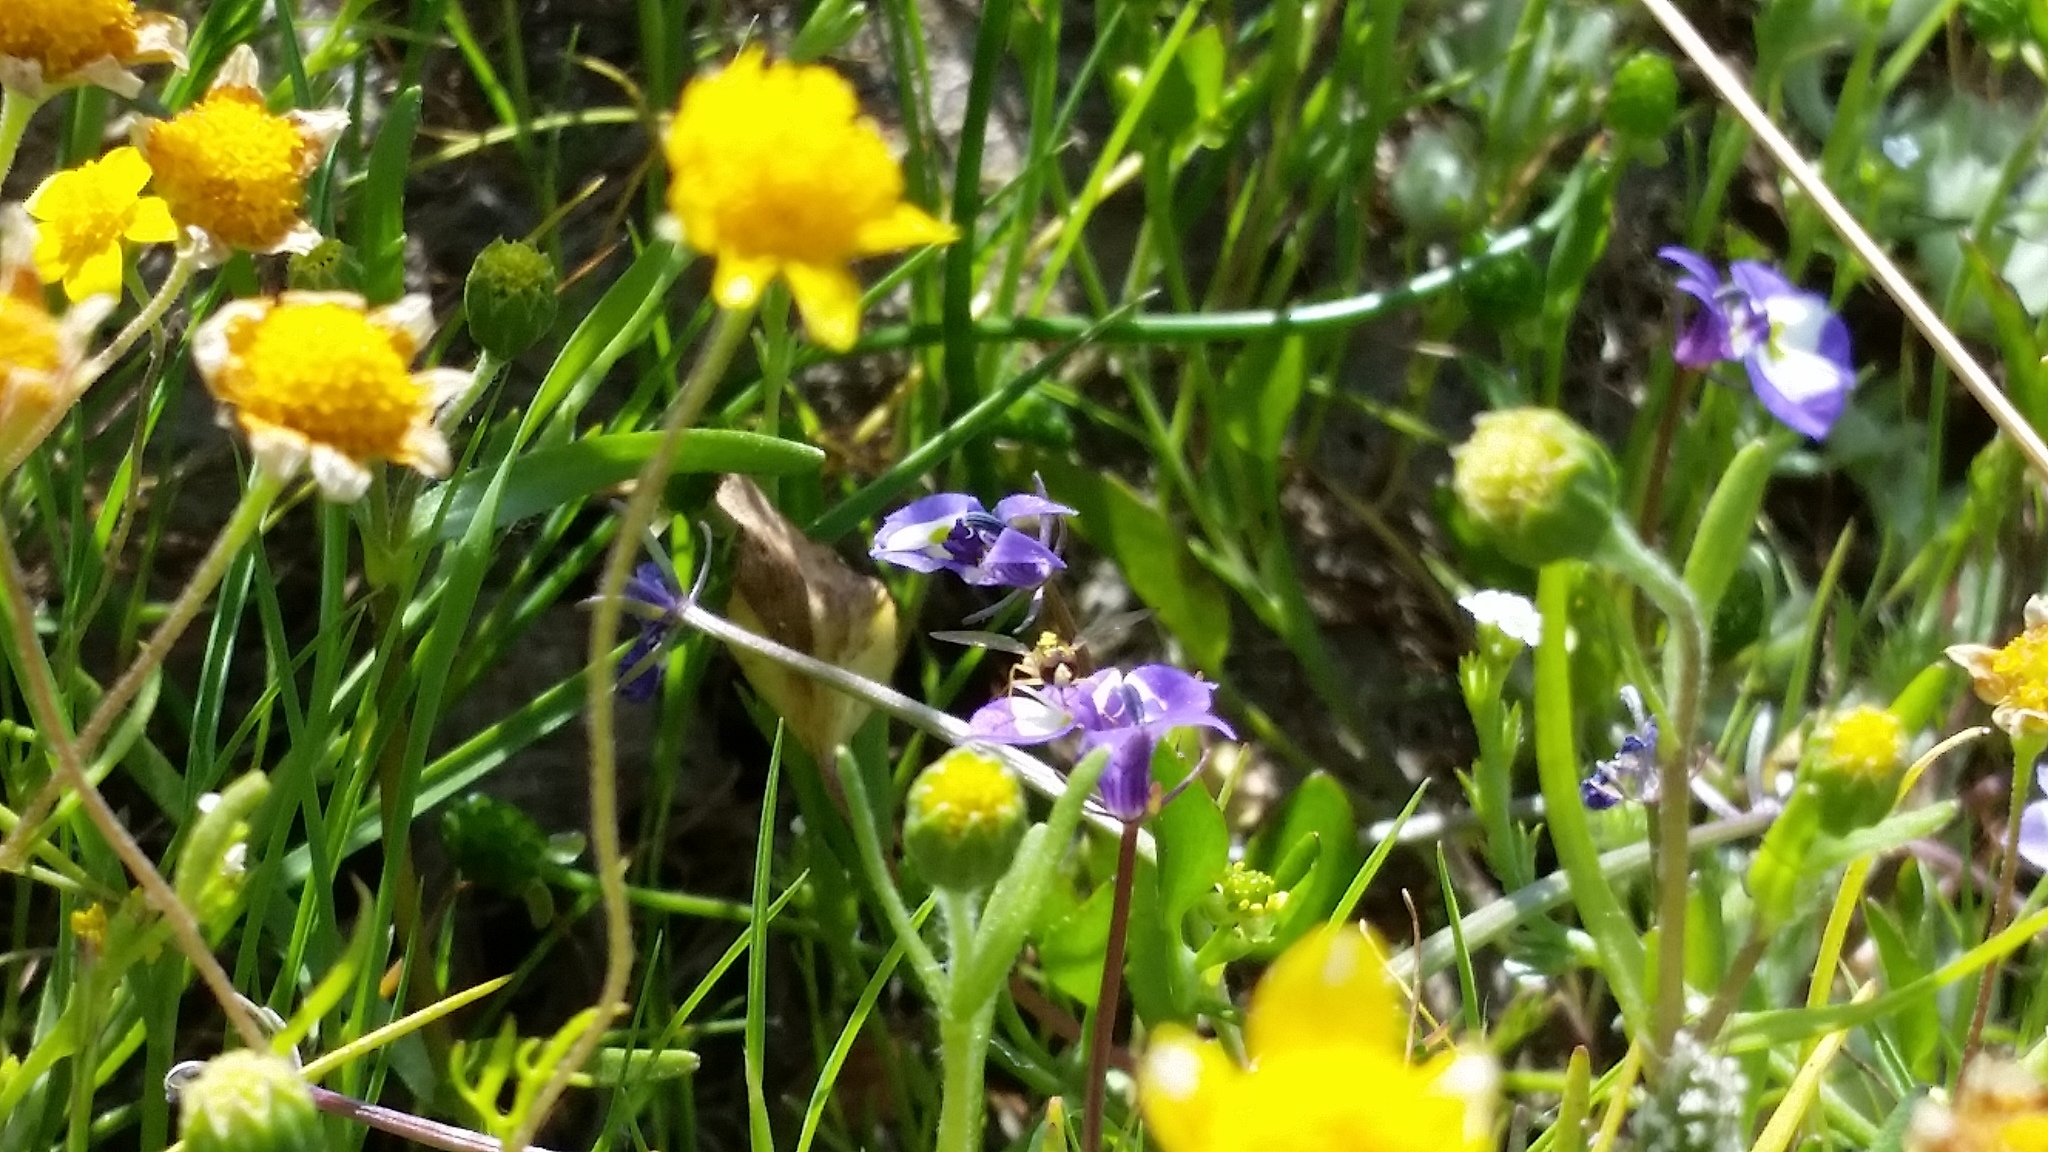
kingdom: Animalia
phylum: Arthropoda
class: Insecta
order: Diptera
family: Syrphidae
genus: Toxomerus
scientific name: Toxomerus
